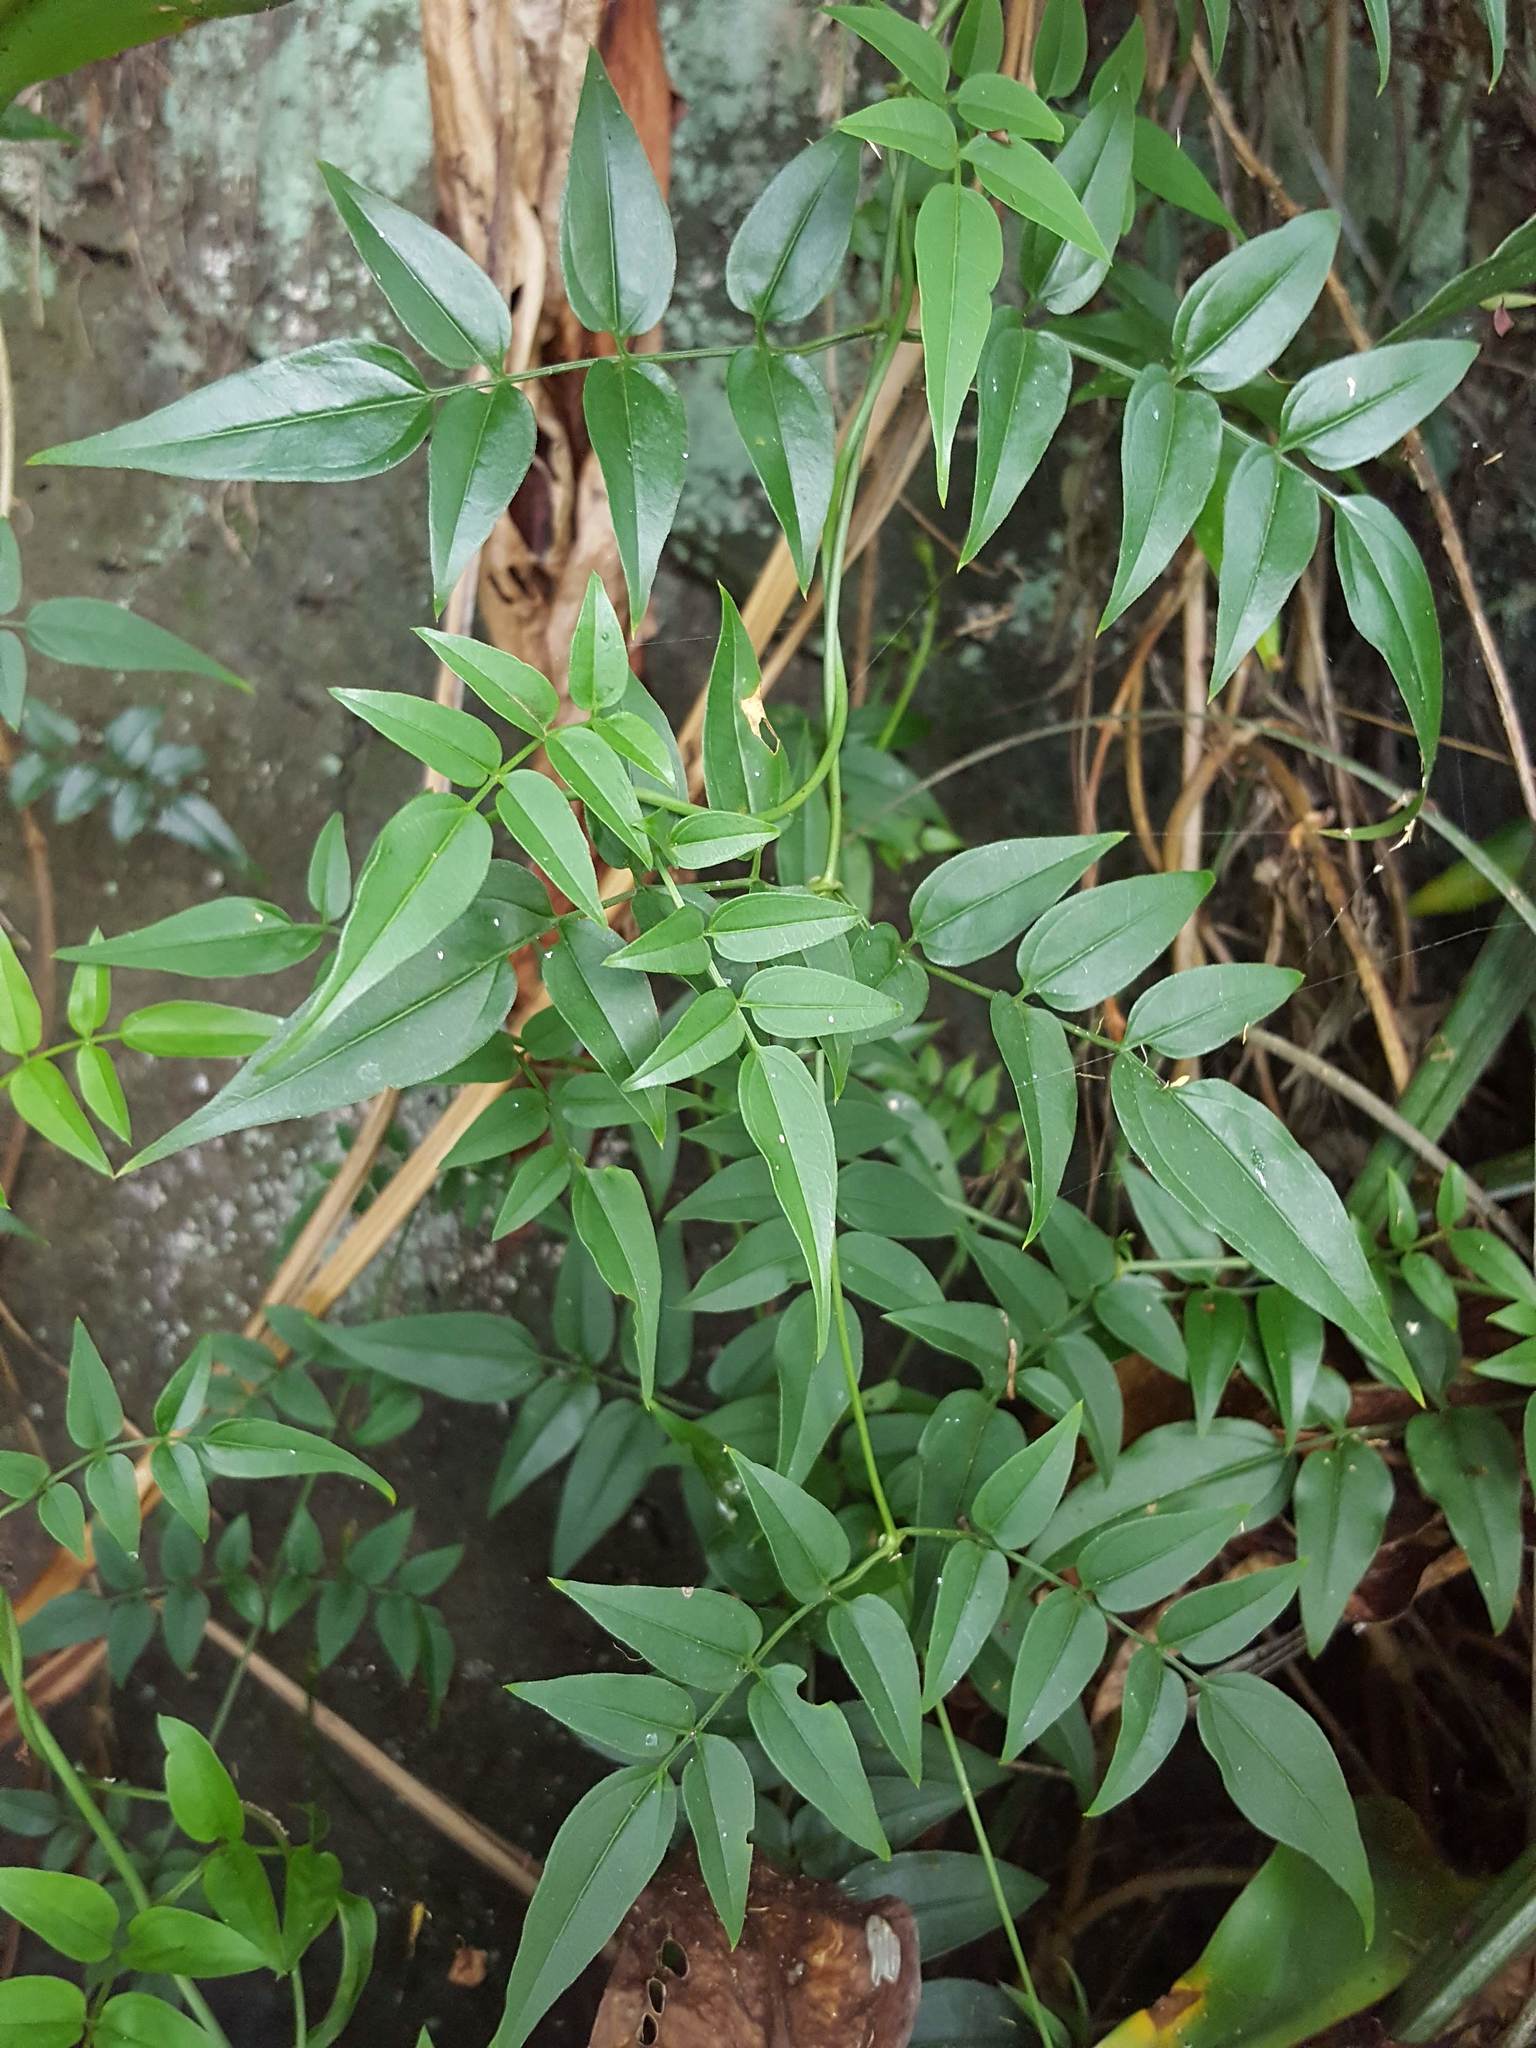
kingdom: Plantae
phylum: Tracheophyta
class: Magnoliopsida
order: Lamiales
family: Oleaceae
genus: Jasminum
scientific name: Jasminum polyanthum
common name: Pink jasmine
